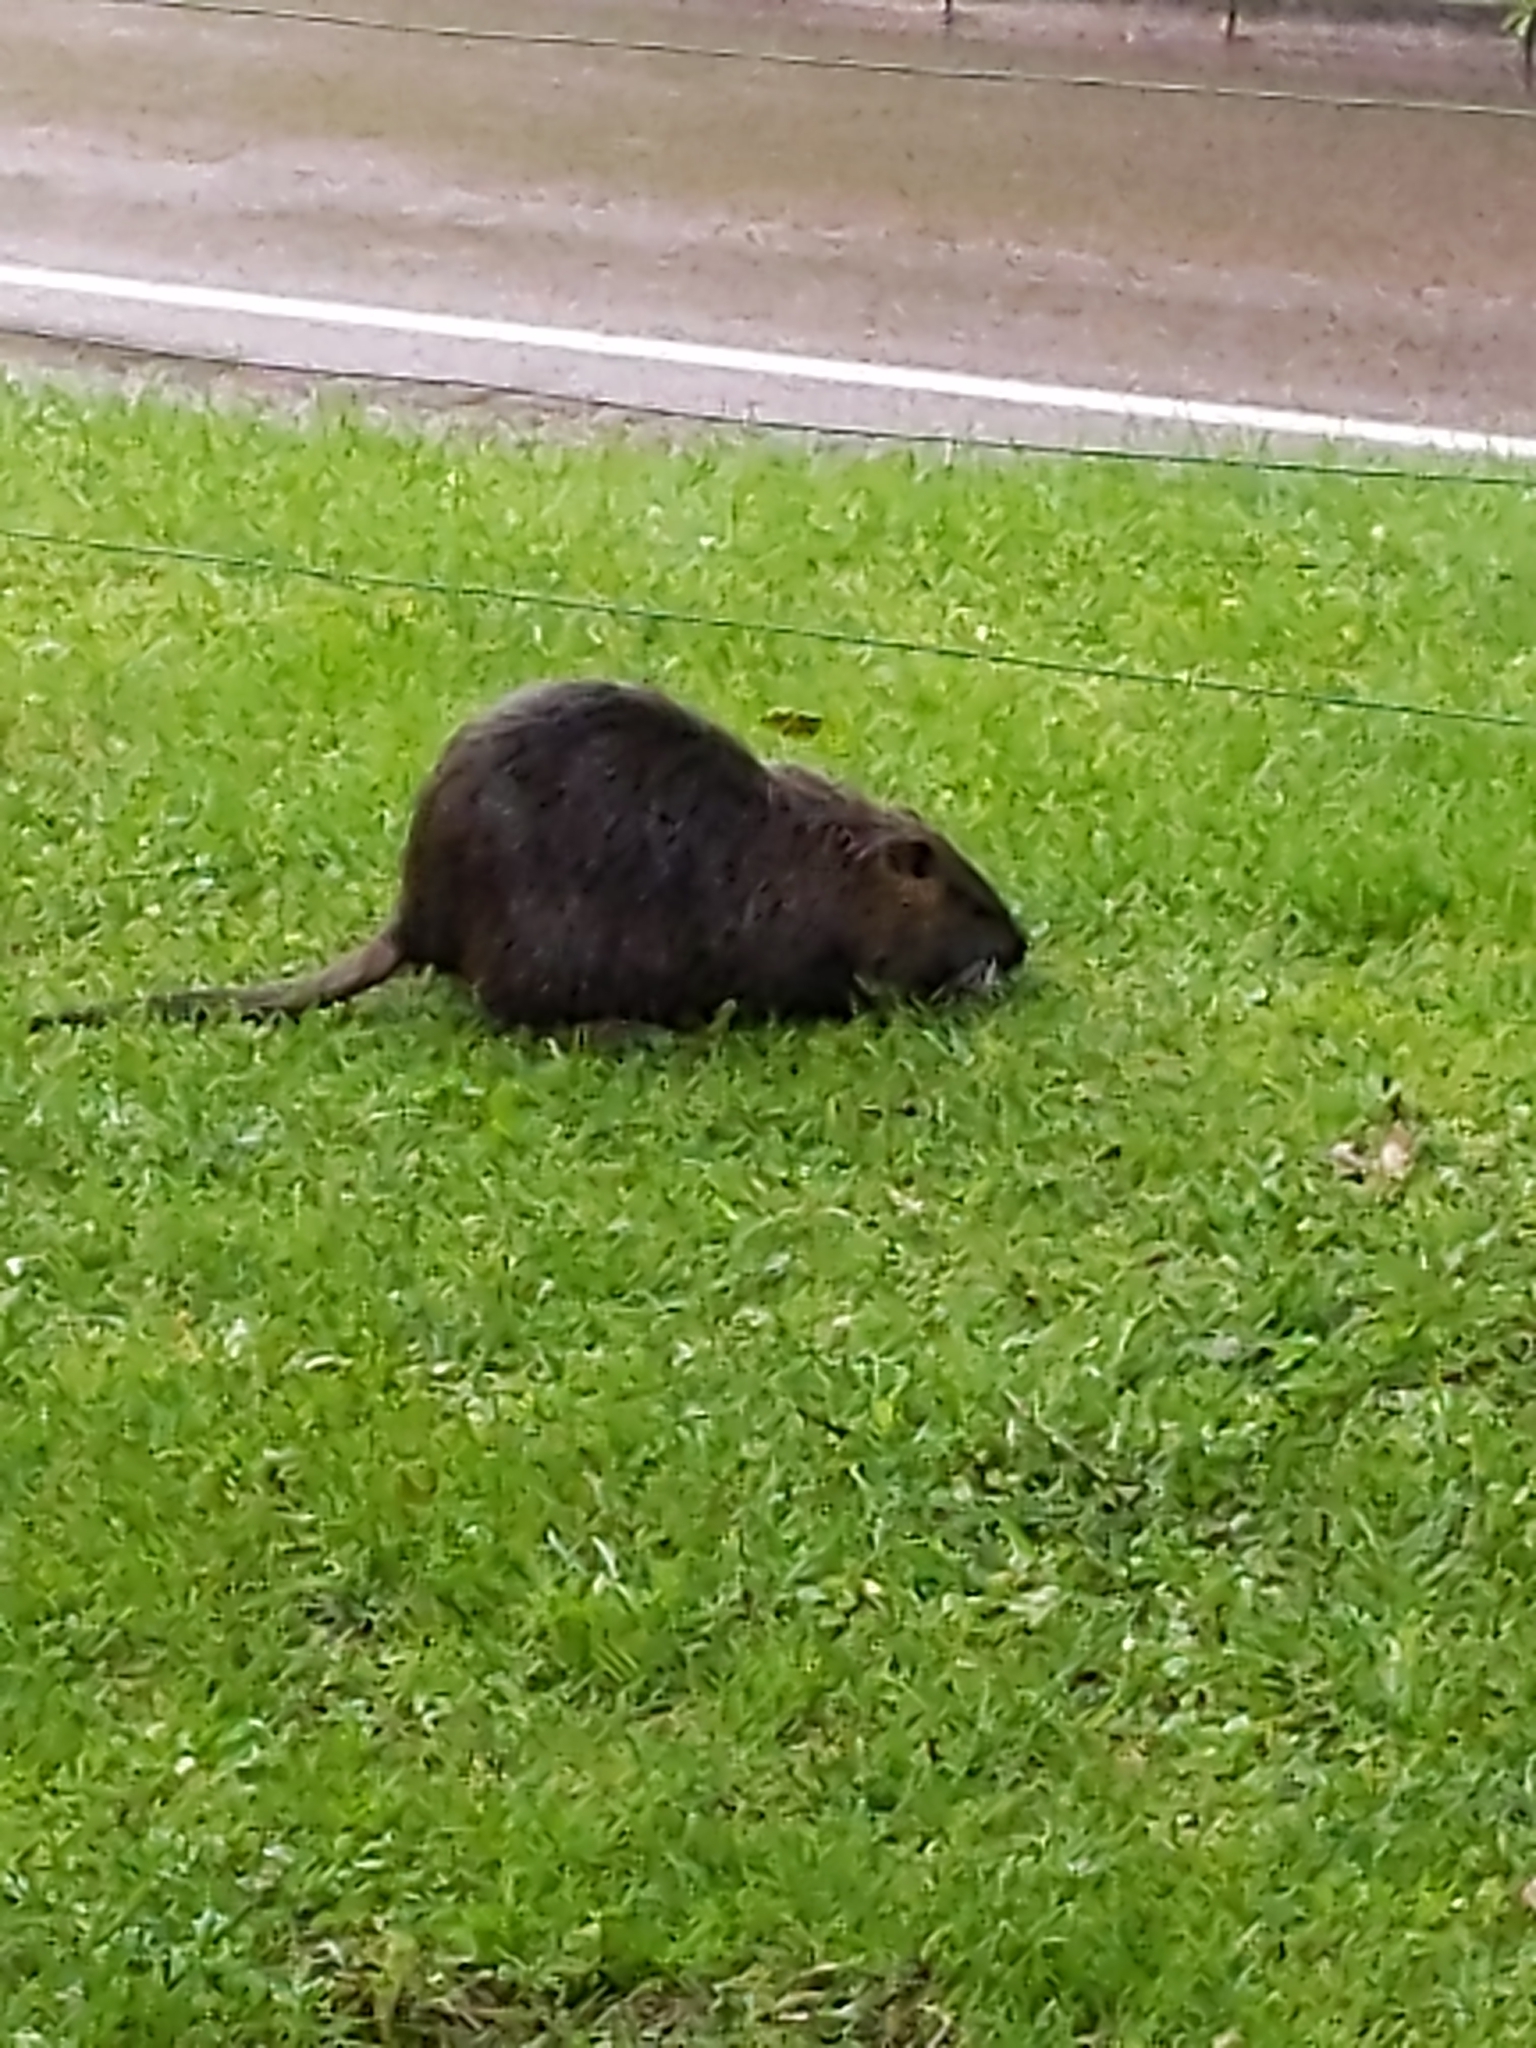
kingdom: Animalia
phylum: Chordata
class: Mammalia
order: Rodentia
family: Myocastoridae
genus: Myocastor
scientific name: Myocastor coypus
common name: Coypu
